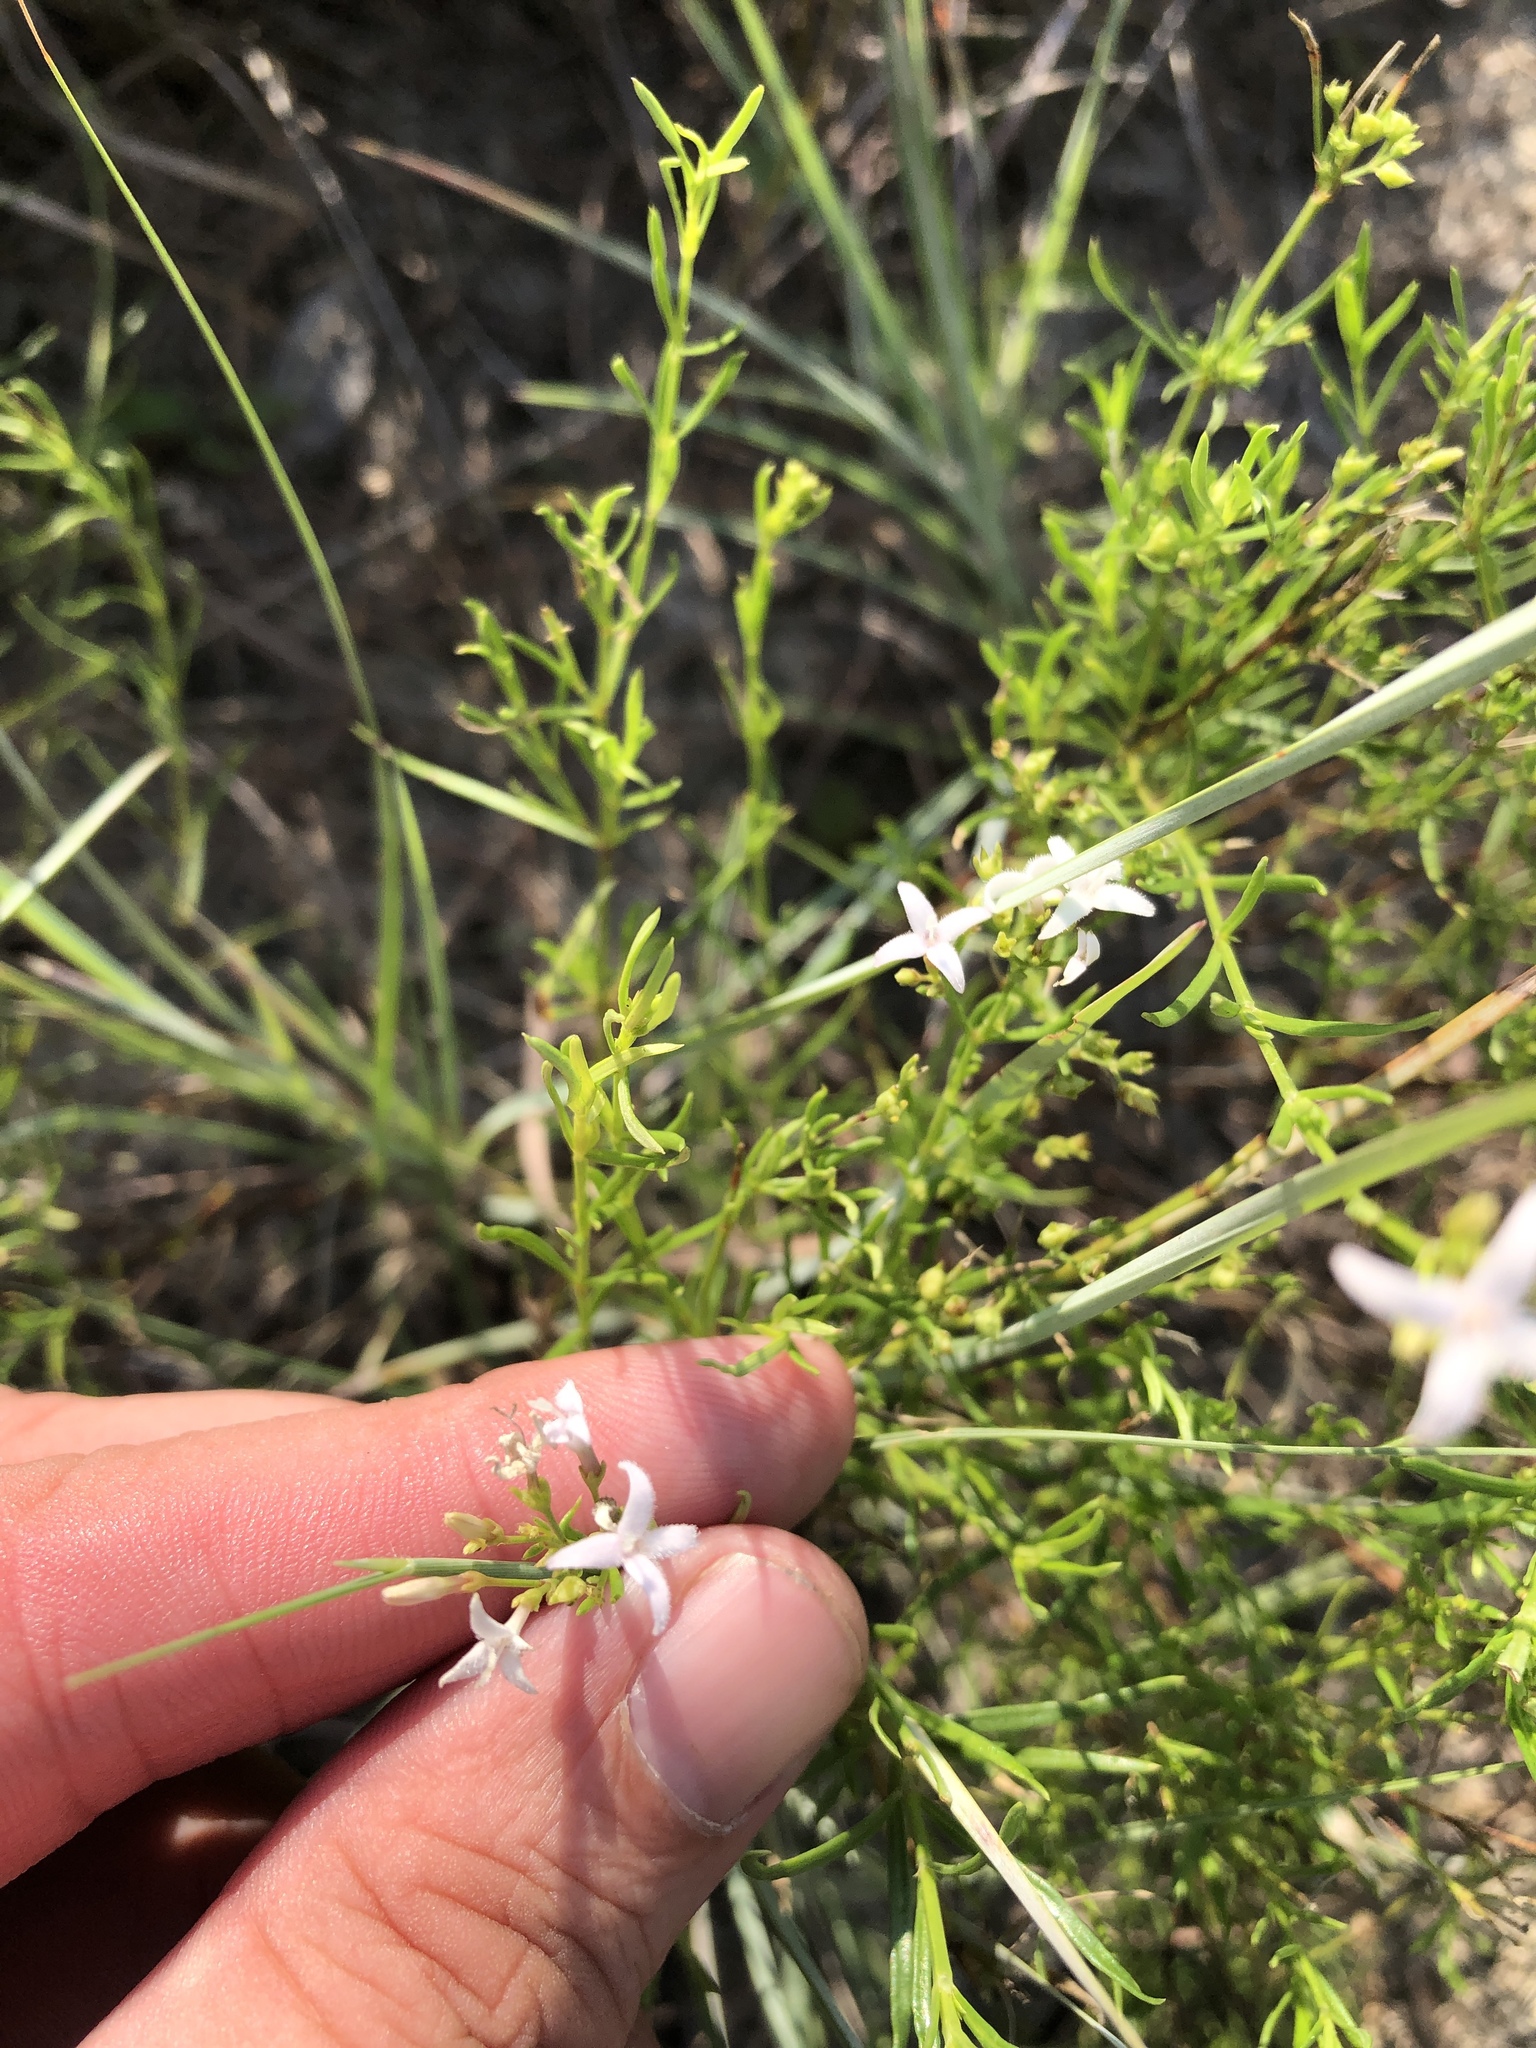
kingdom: Plantae
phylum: Tracheophyta
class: Magnoliopsida
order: Gentianales
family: Rubiaceae
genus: Stenaria
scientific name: Stenaria nigricans
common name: Diamondflowers
